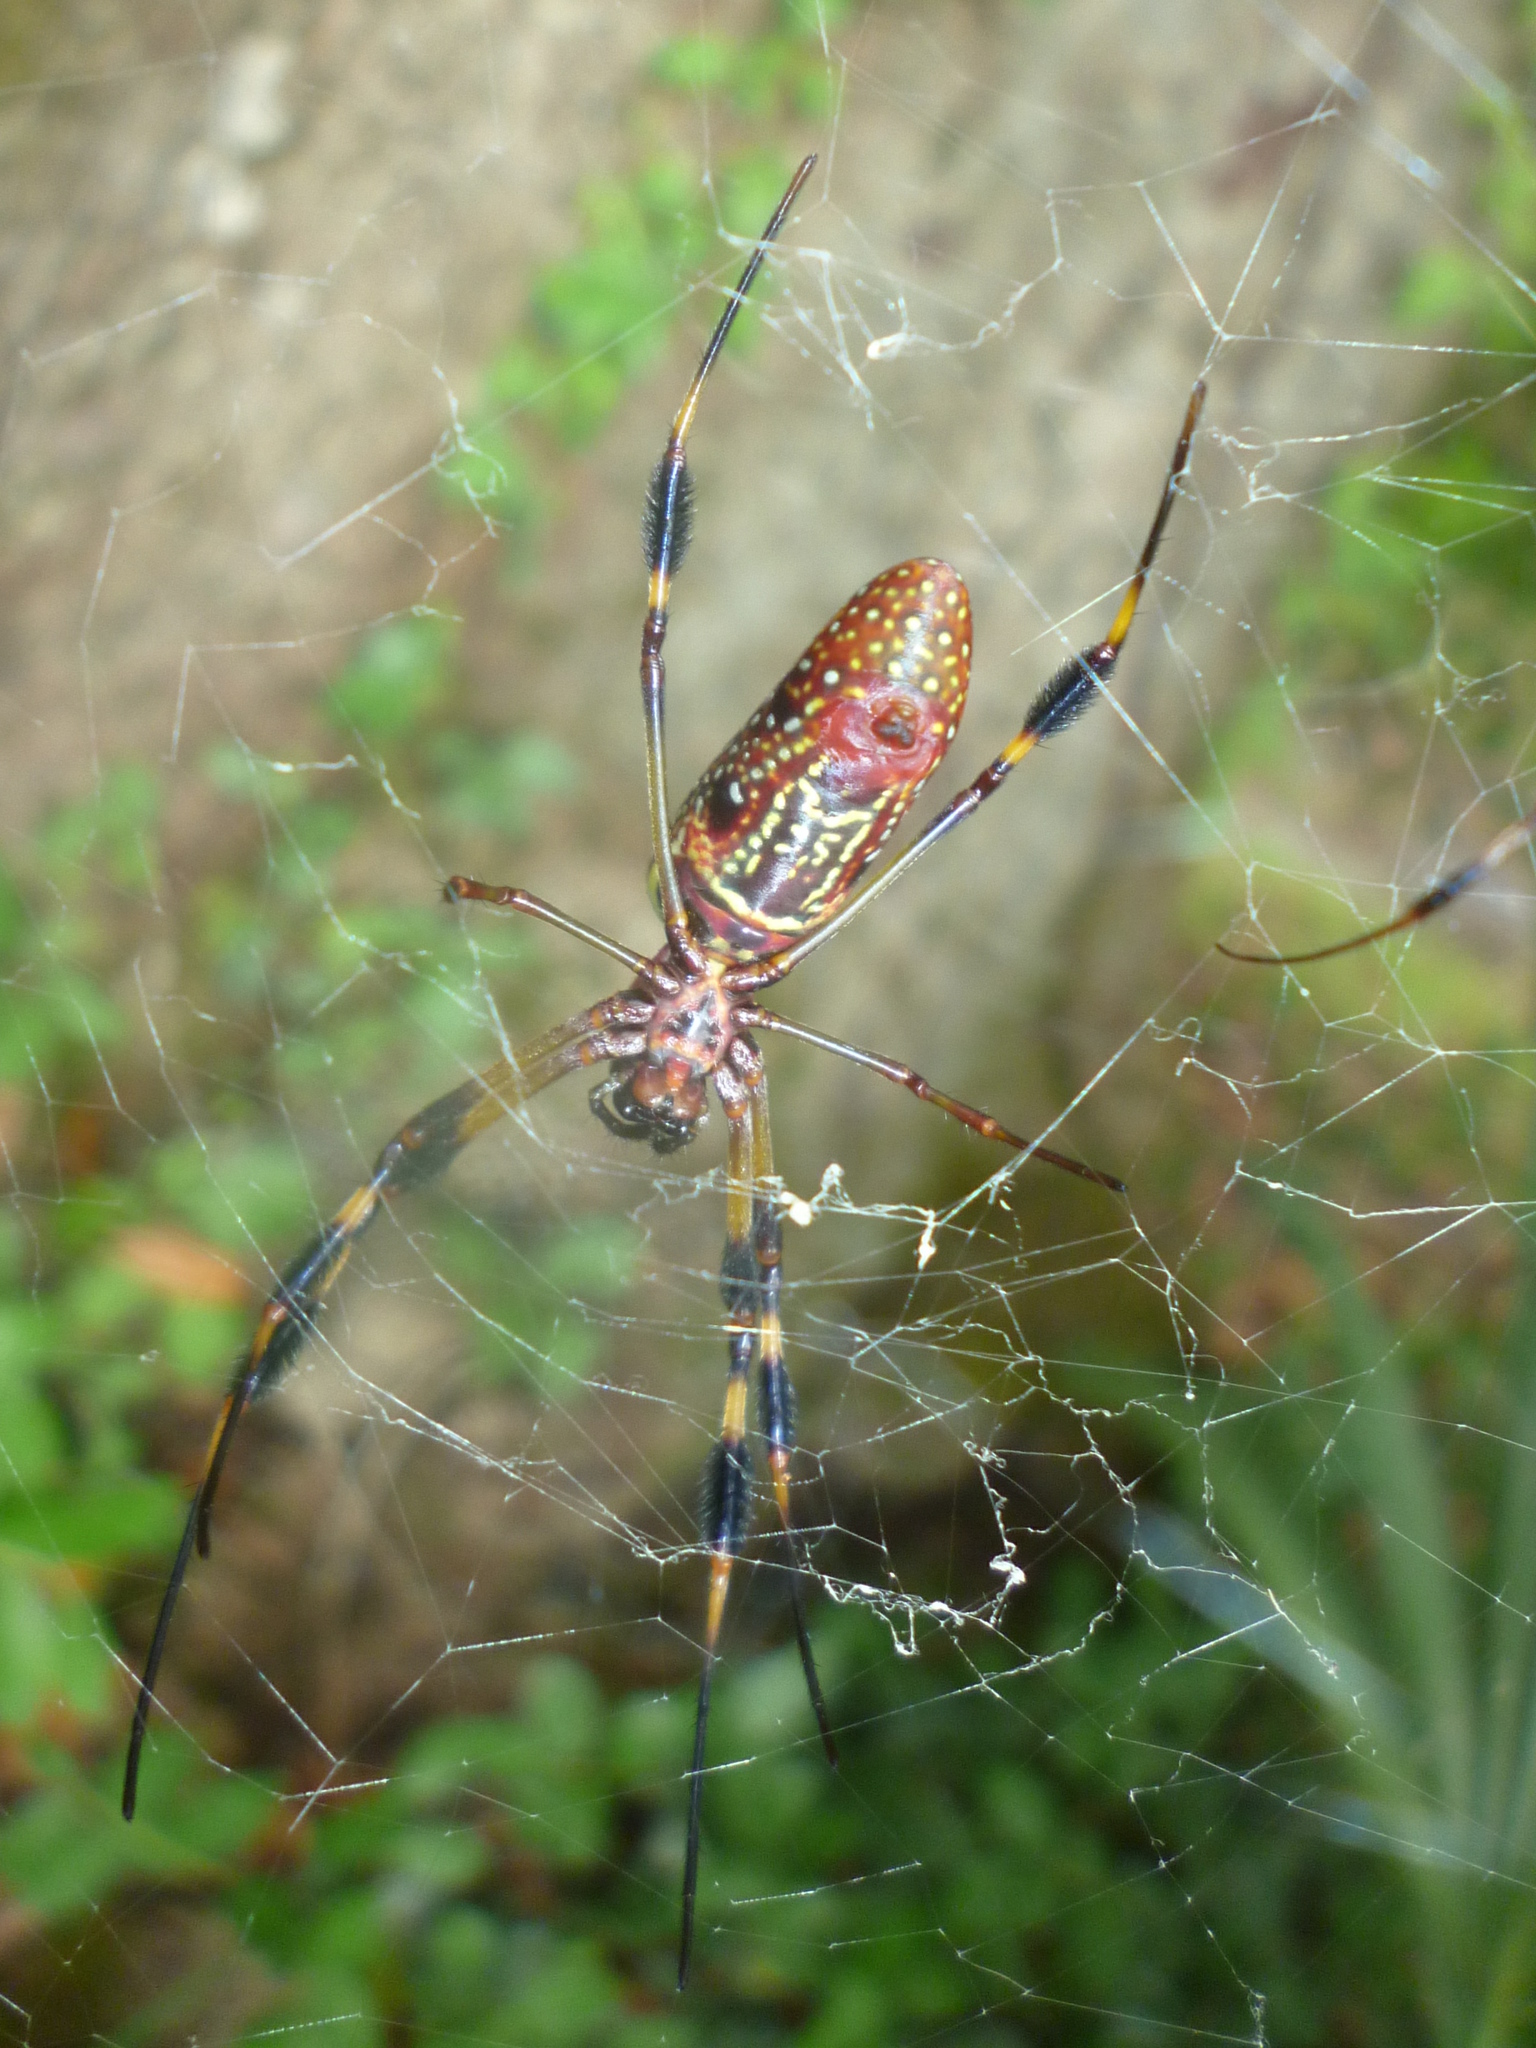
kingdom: Animalia
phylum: Arthropoda
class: Arachnida
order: Araneae
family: Araneidae
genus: Trichonephila
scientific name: Trichonephila clavipes
